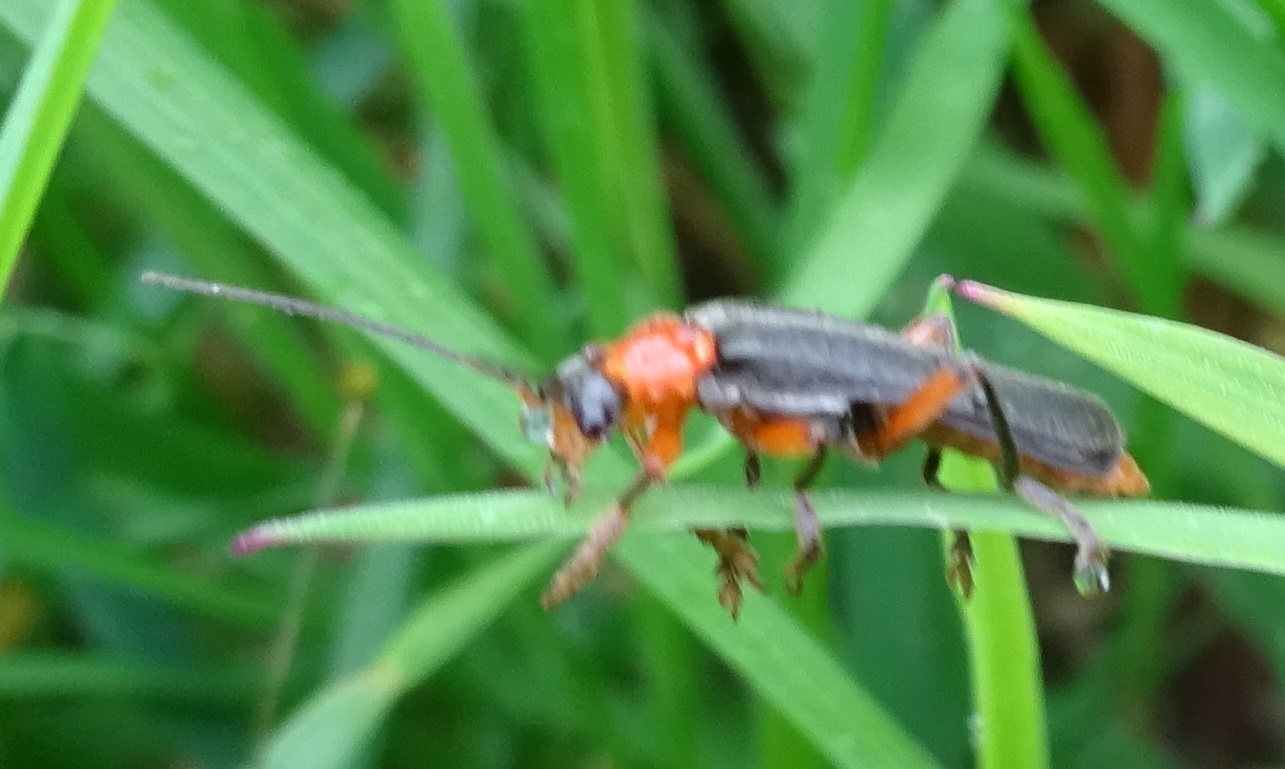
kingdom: Animalia
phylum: Arthropoda
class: Insecta
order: Coleoptera
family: Cantharidae
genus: Cantharis
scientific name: Cantharis pellucida
